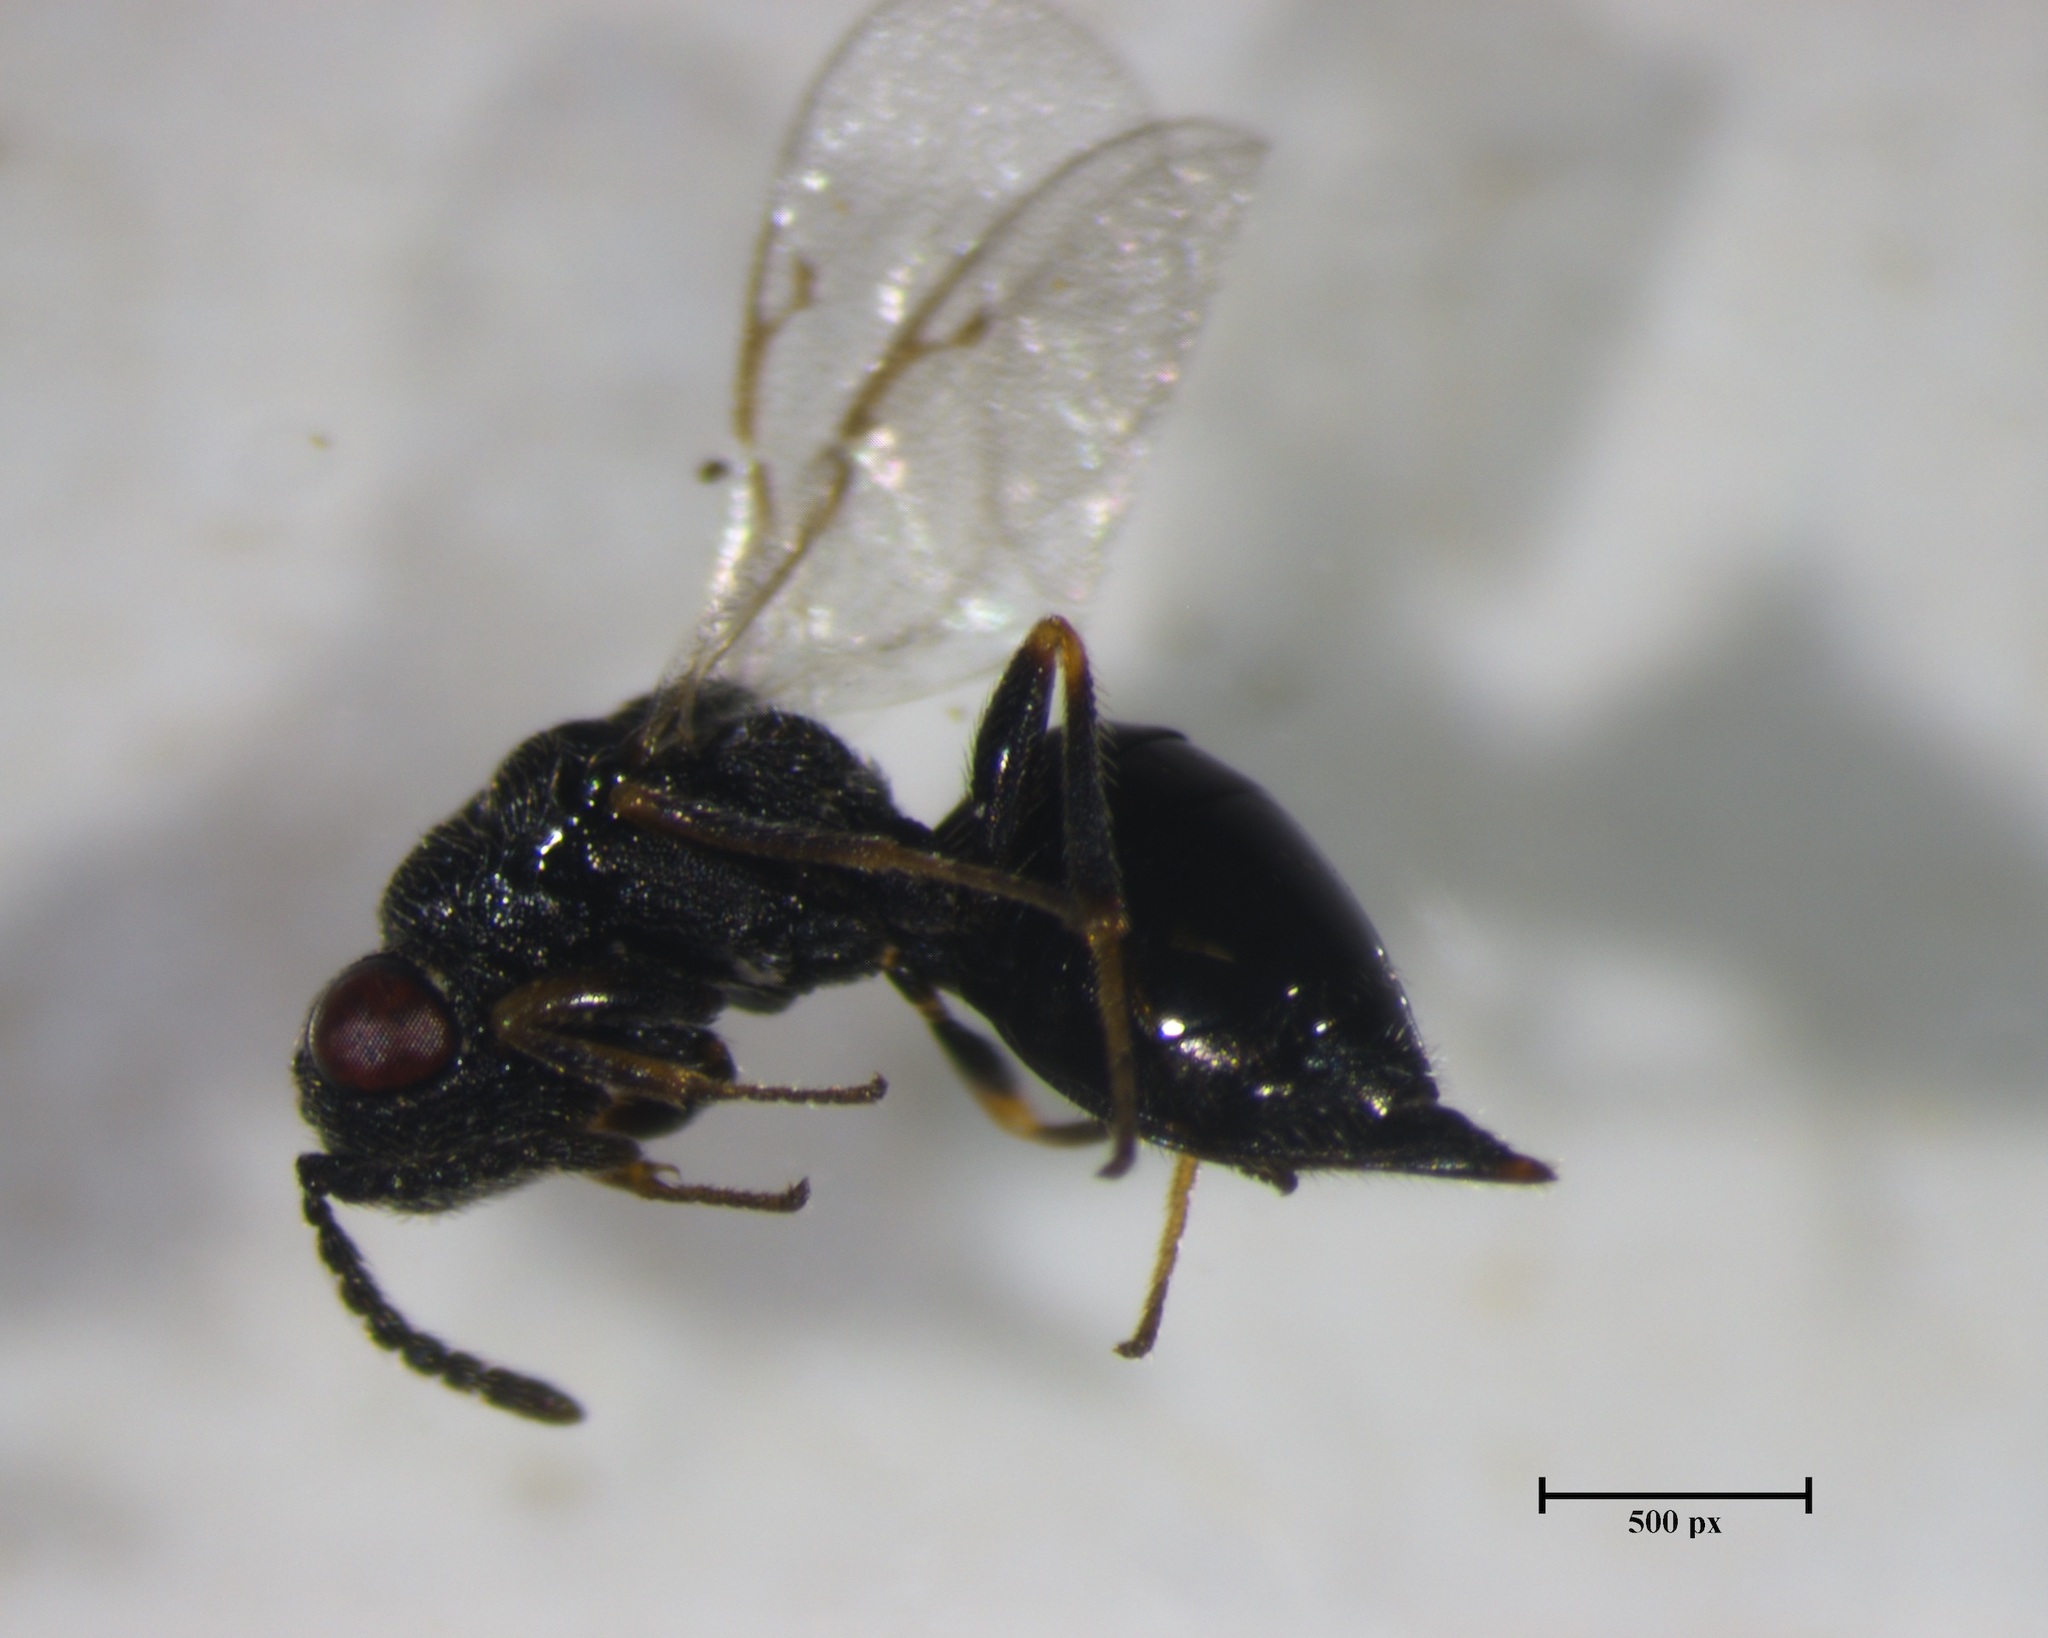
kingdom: Animalia
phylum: Arthropoda
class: Insecta
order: Hymenoptera
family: Eurytomidae
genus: Eurytoma
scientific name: Eurytoma discordans
